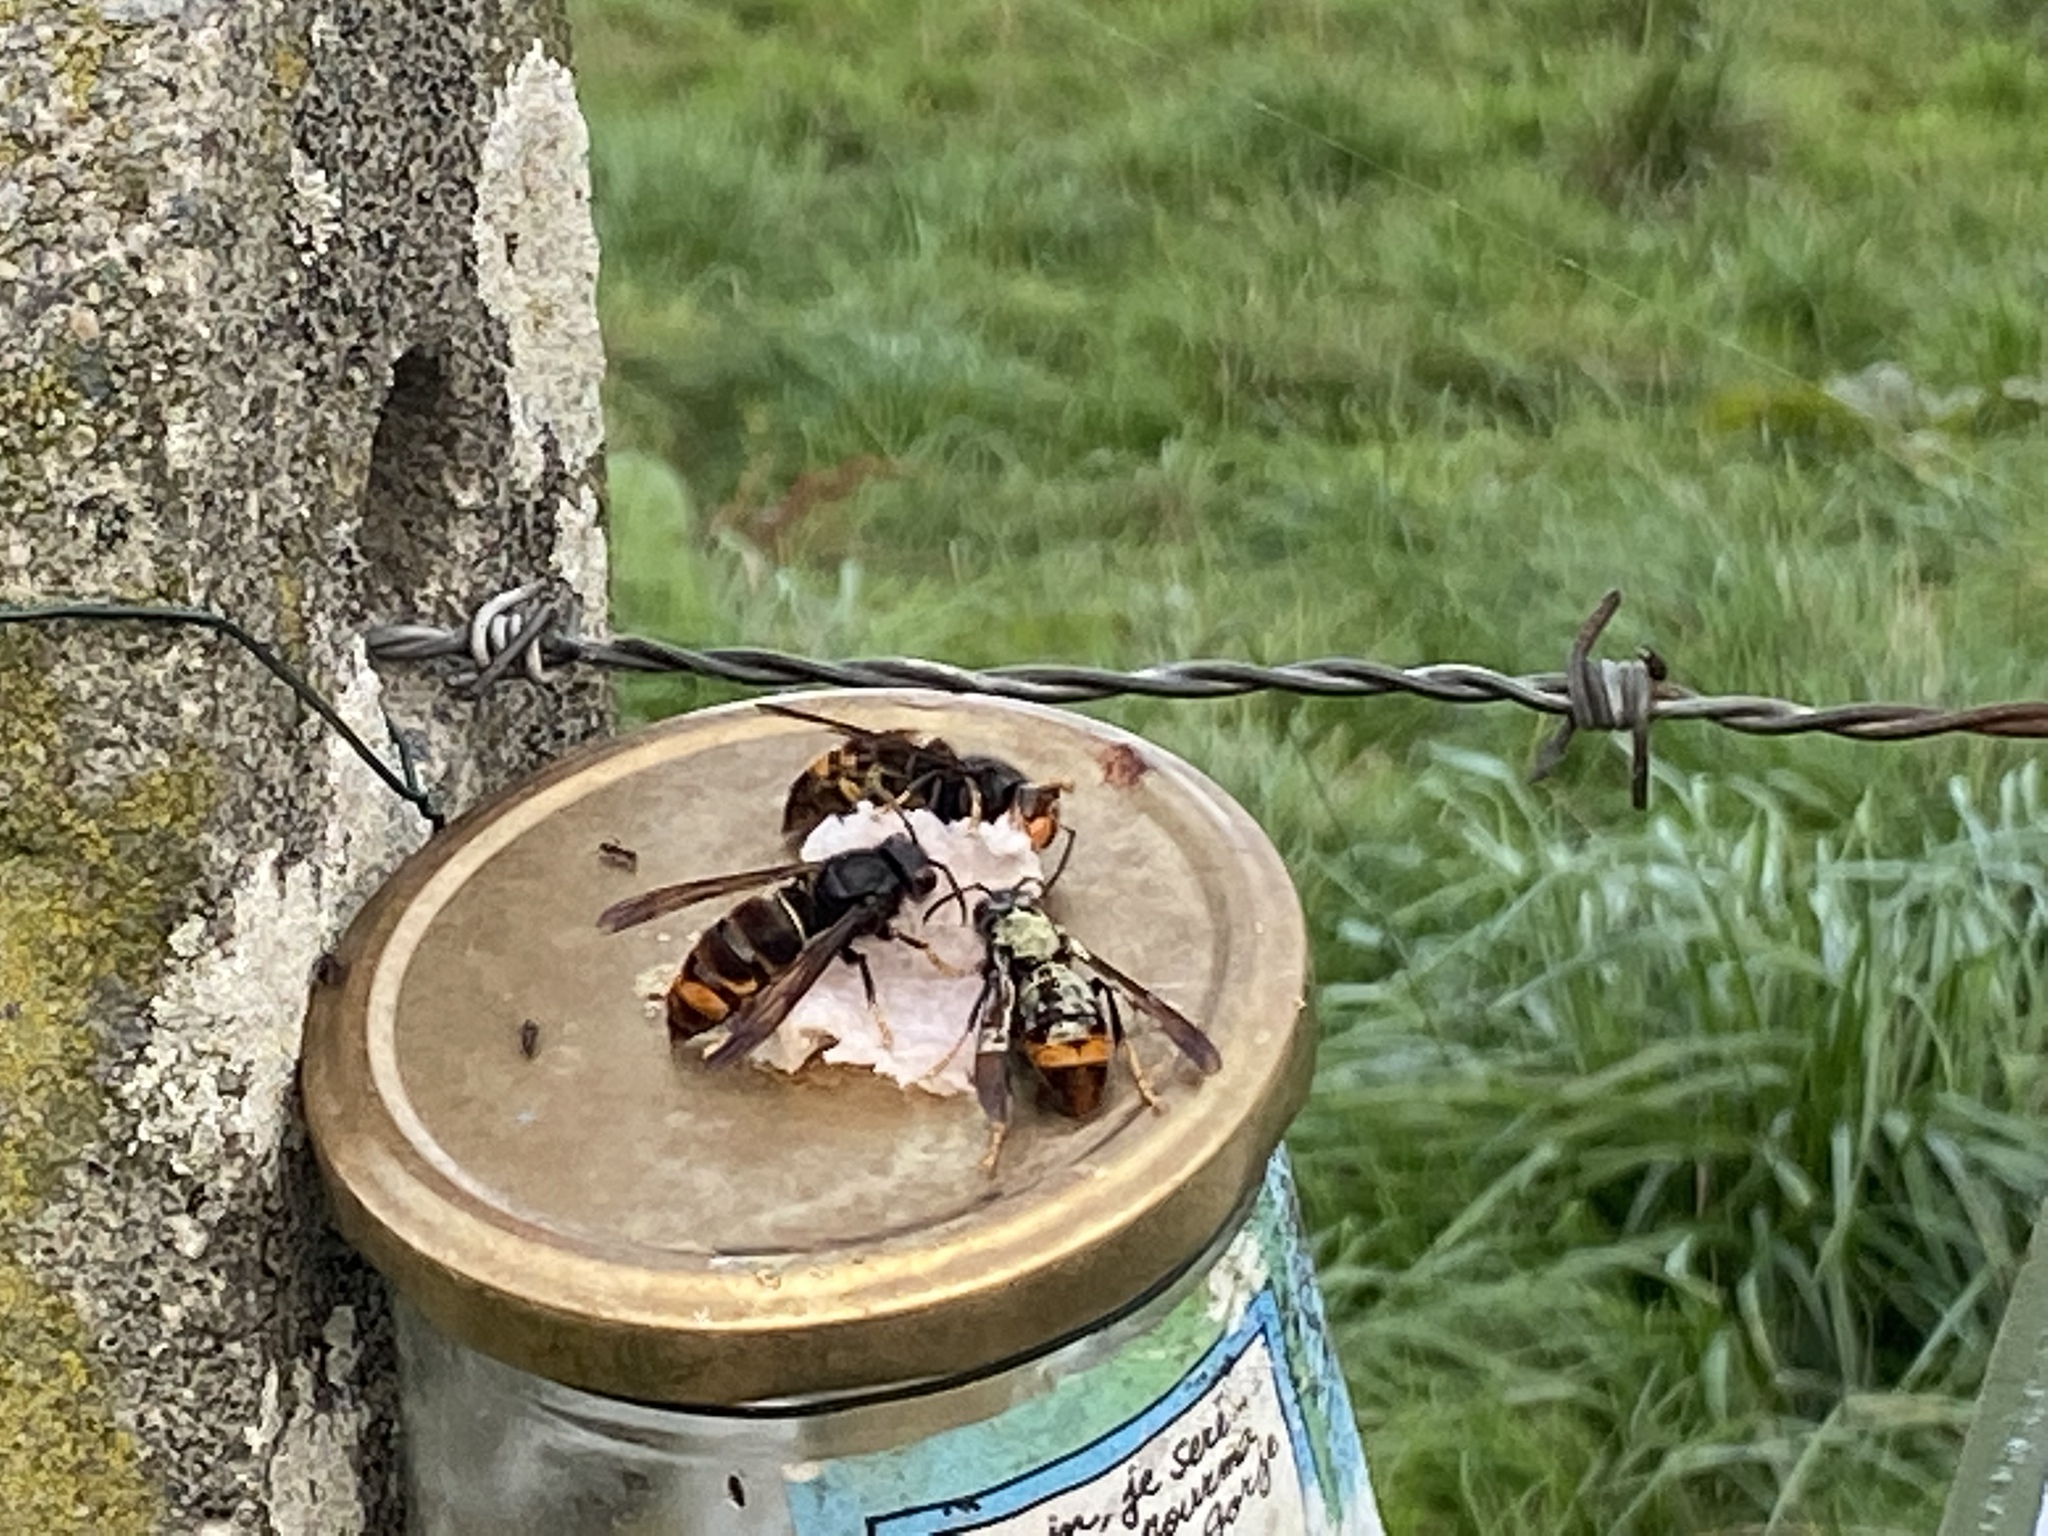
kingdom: Animalia
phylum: Arthropoda
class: Insecta
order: Hymenoptera
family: Vespidae
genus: Vespa
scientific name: Vespa velutina
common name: Asian hornet
